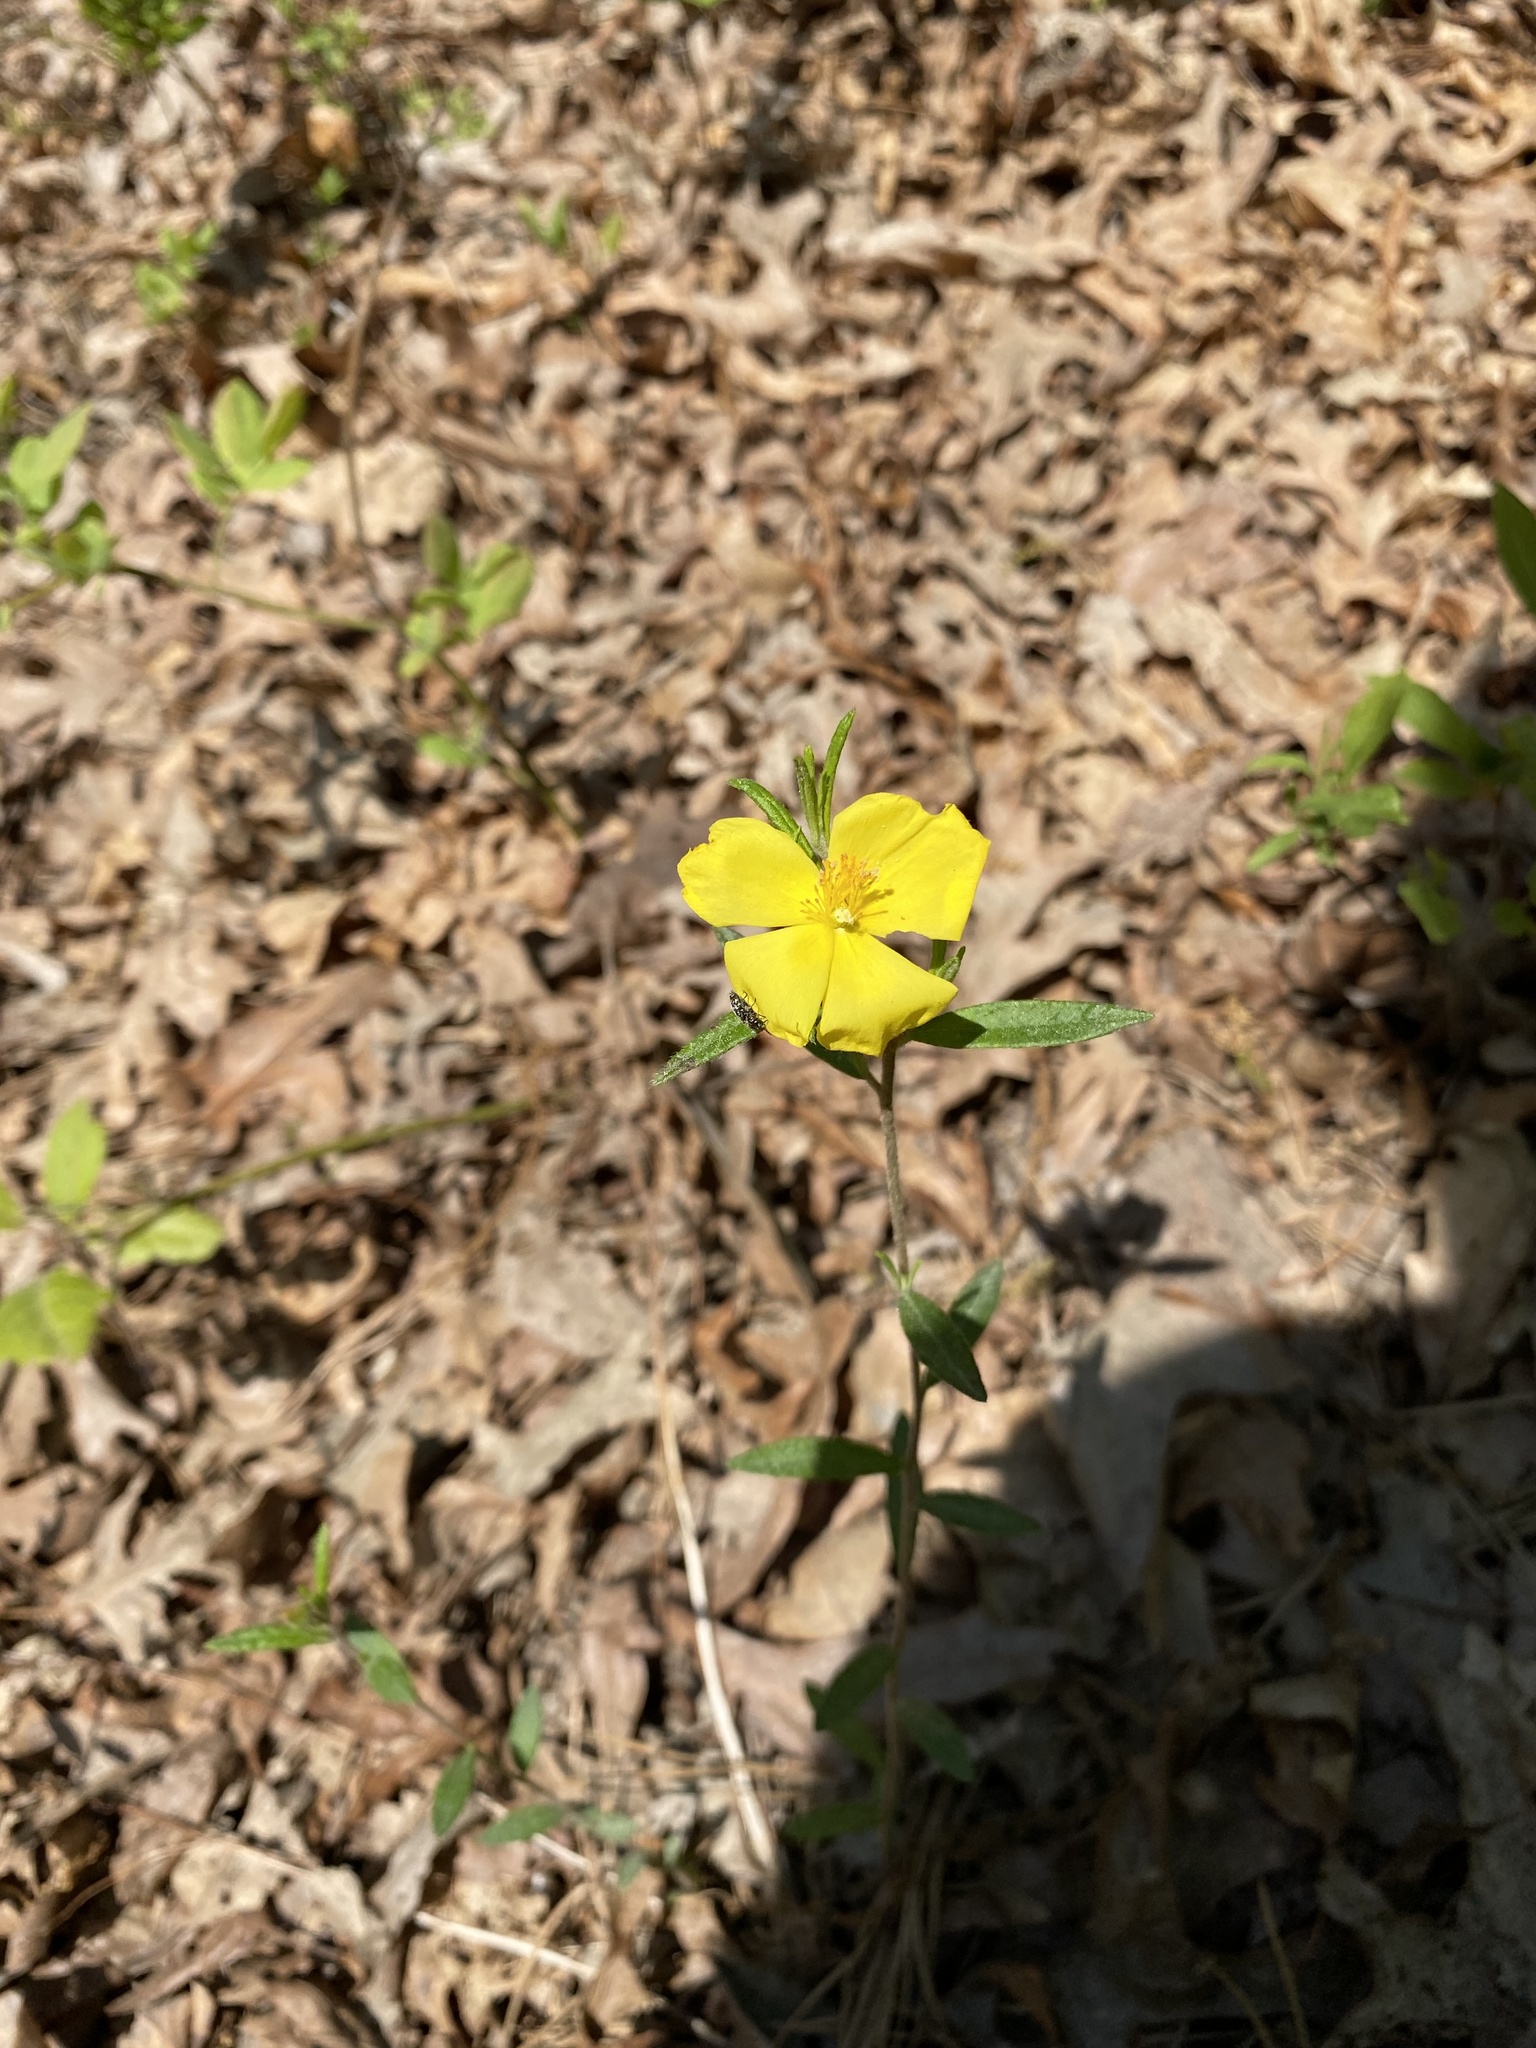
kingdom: Plantae
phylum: Tracheophyta
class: Magnoliopsida
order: Malvales
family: Cistaceae
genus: Crocanthemum
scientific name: Crocanthemum canadense
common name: Canada frostweed
